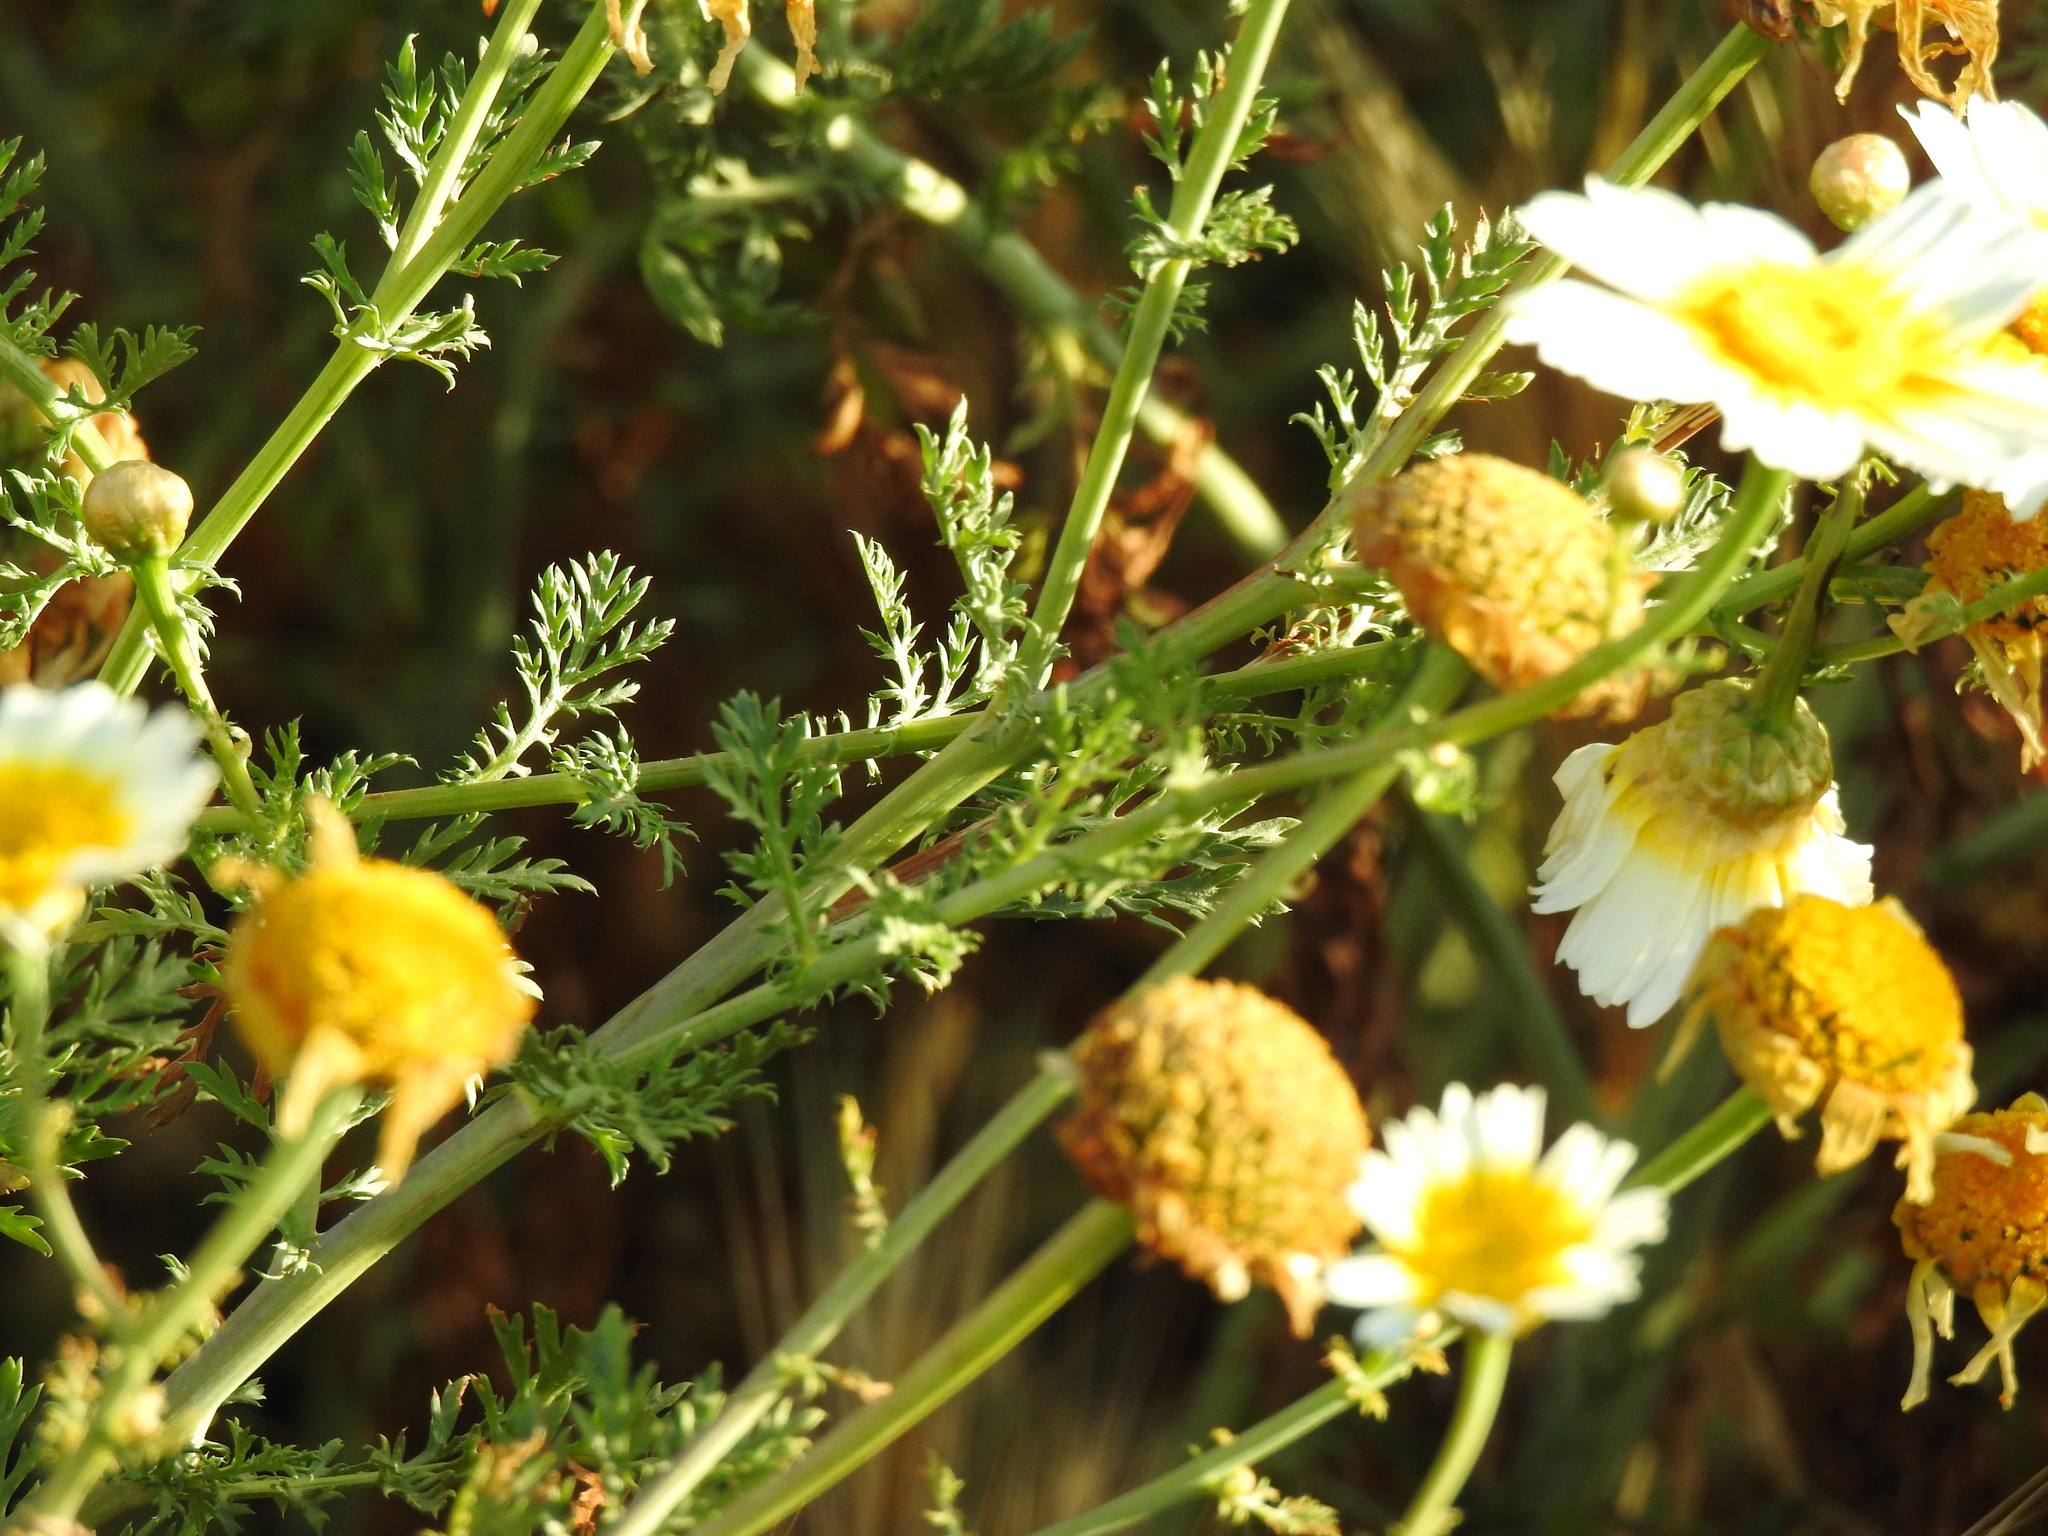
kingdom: Plantae
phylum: Tracheophyta
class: Magnoliopsida
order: Asterales
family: Asteraceae
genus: Glebionis
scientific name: Glebionis coronaria
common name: Crowndaisy
